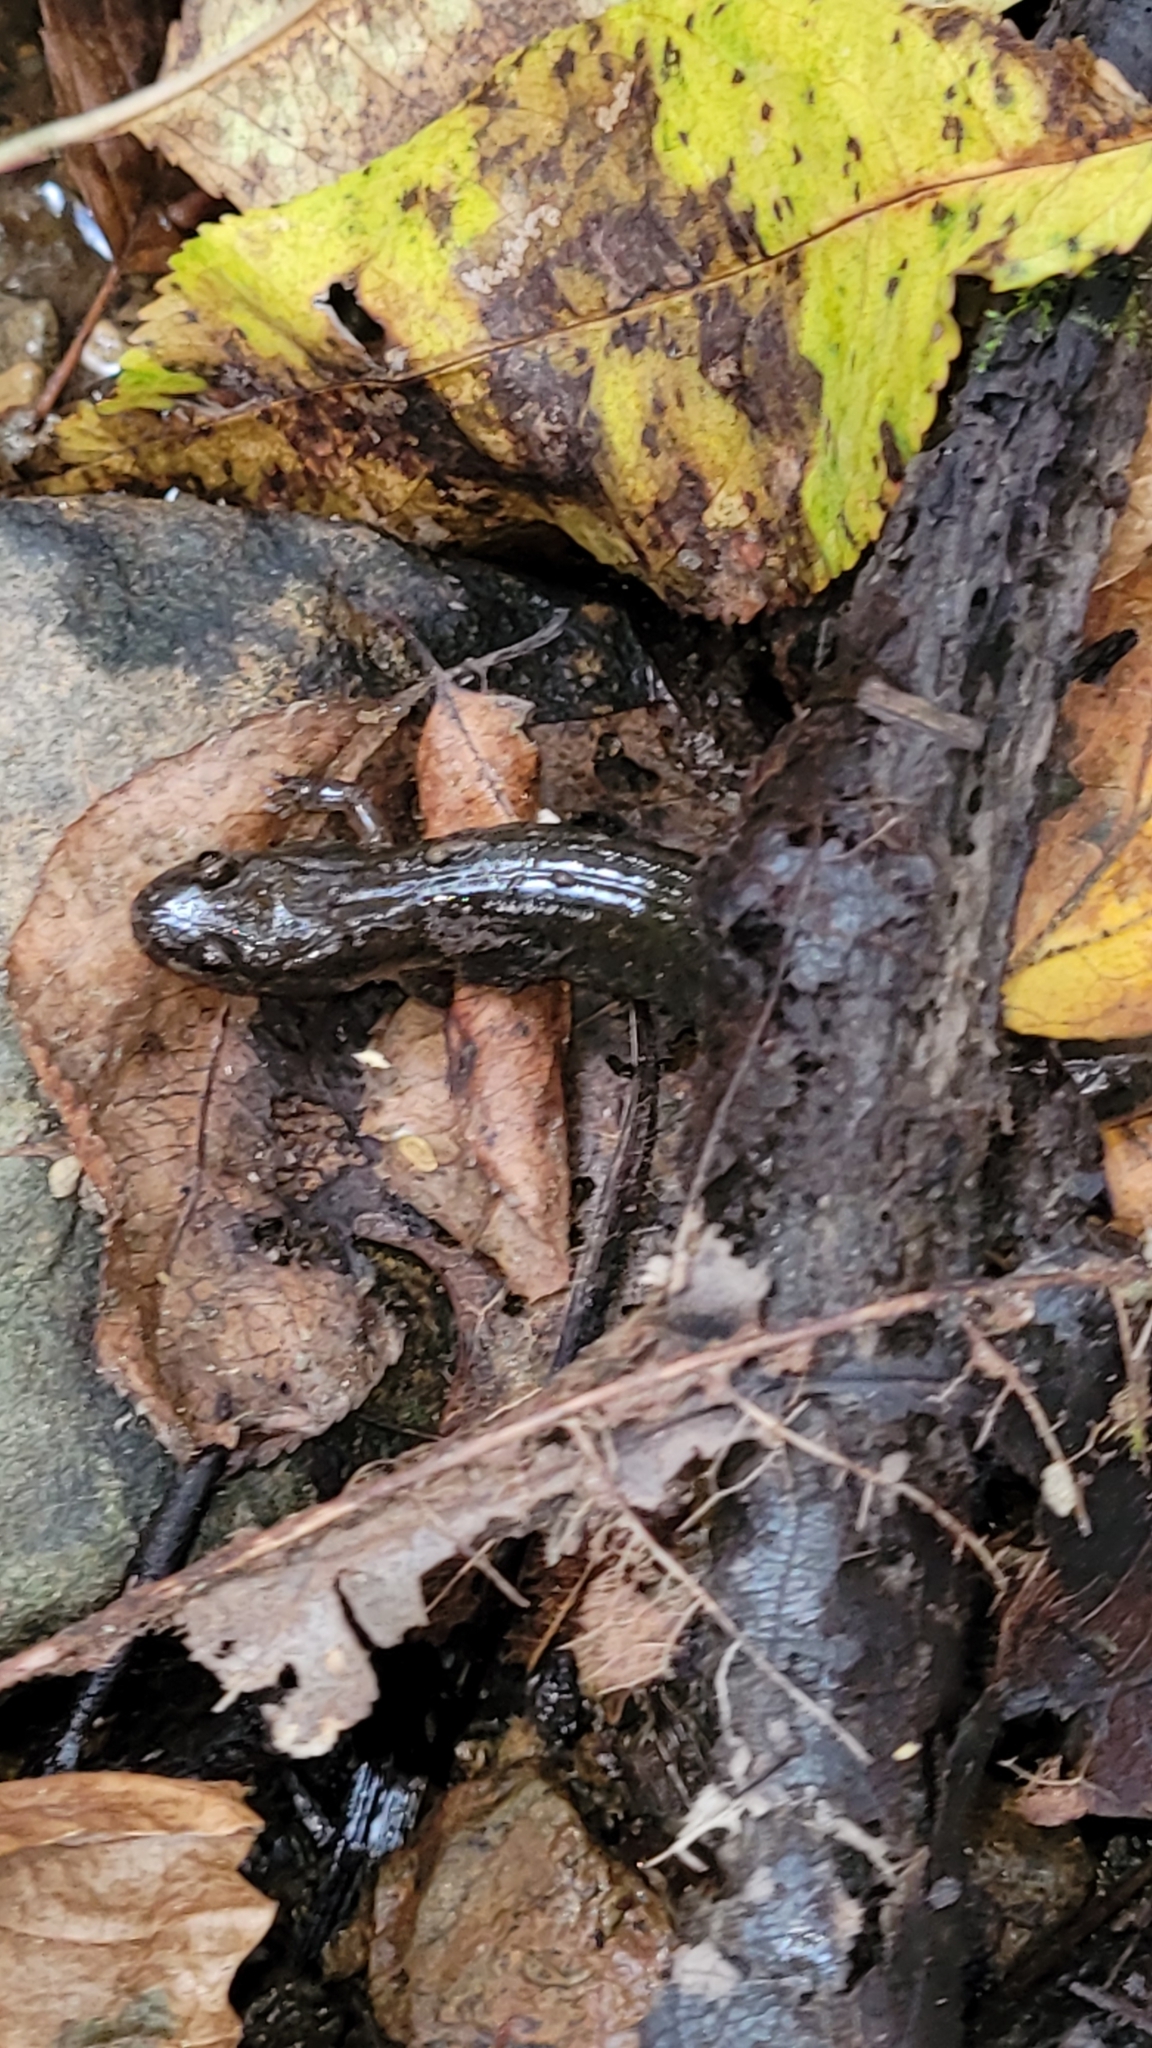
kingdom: Animalia
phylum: Chordata
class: Amphibia
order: Caudata
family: Plethodontidae
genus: Desmognathus
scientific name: Desmognathus fuscus
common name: Northern dusky salamander
